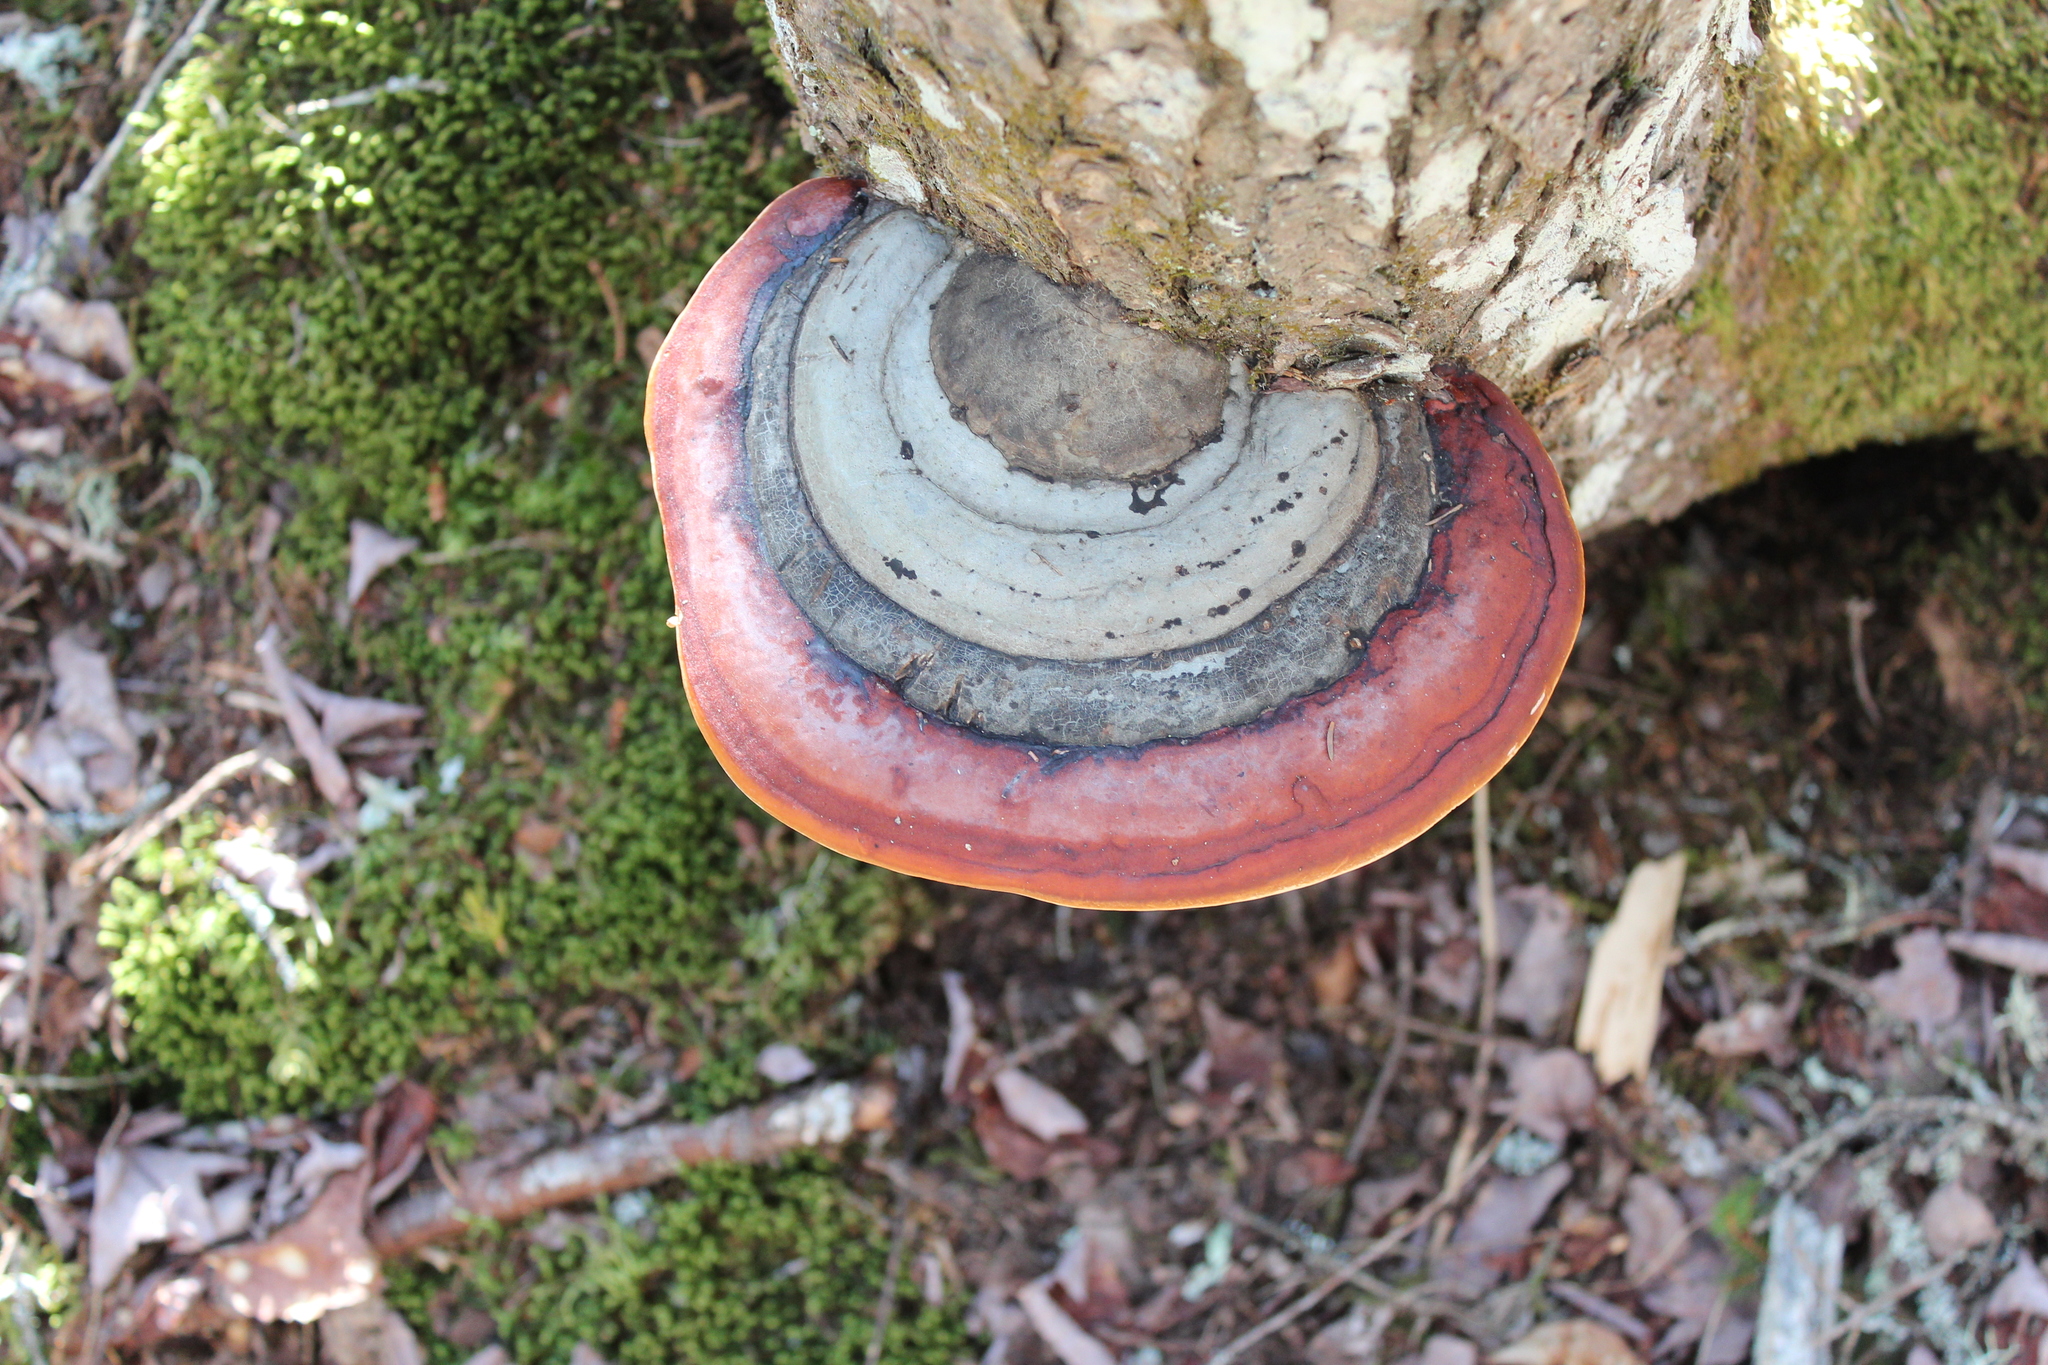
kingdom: Fungi
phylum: Basidiomycota
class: Agaricomycetes
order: Polyporales
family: Fomitopsidaceae
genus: Fomitopsis
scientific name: Fomitopsis mounceae
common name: Northern red belt
